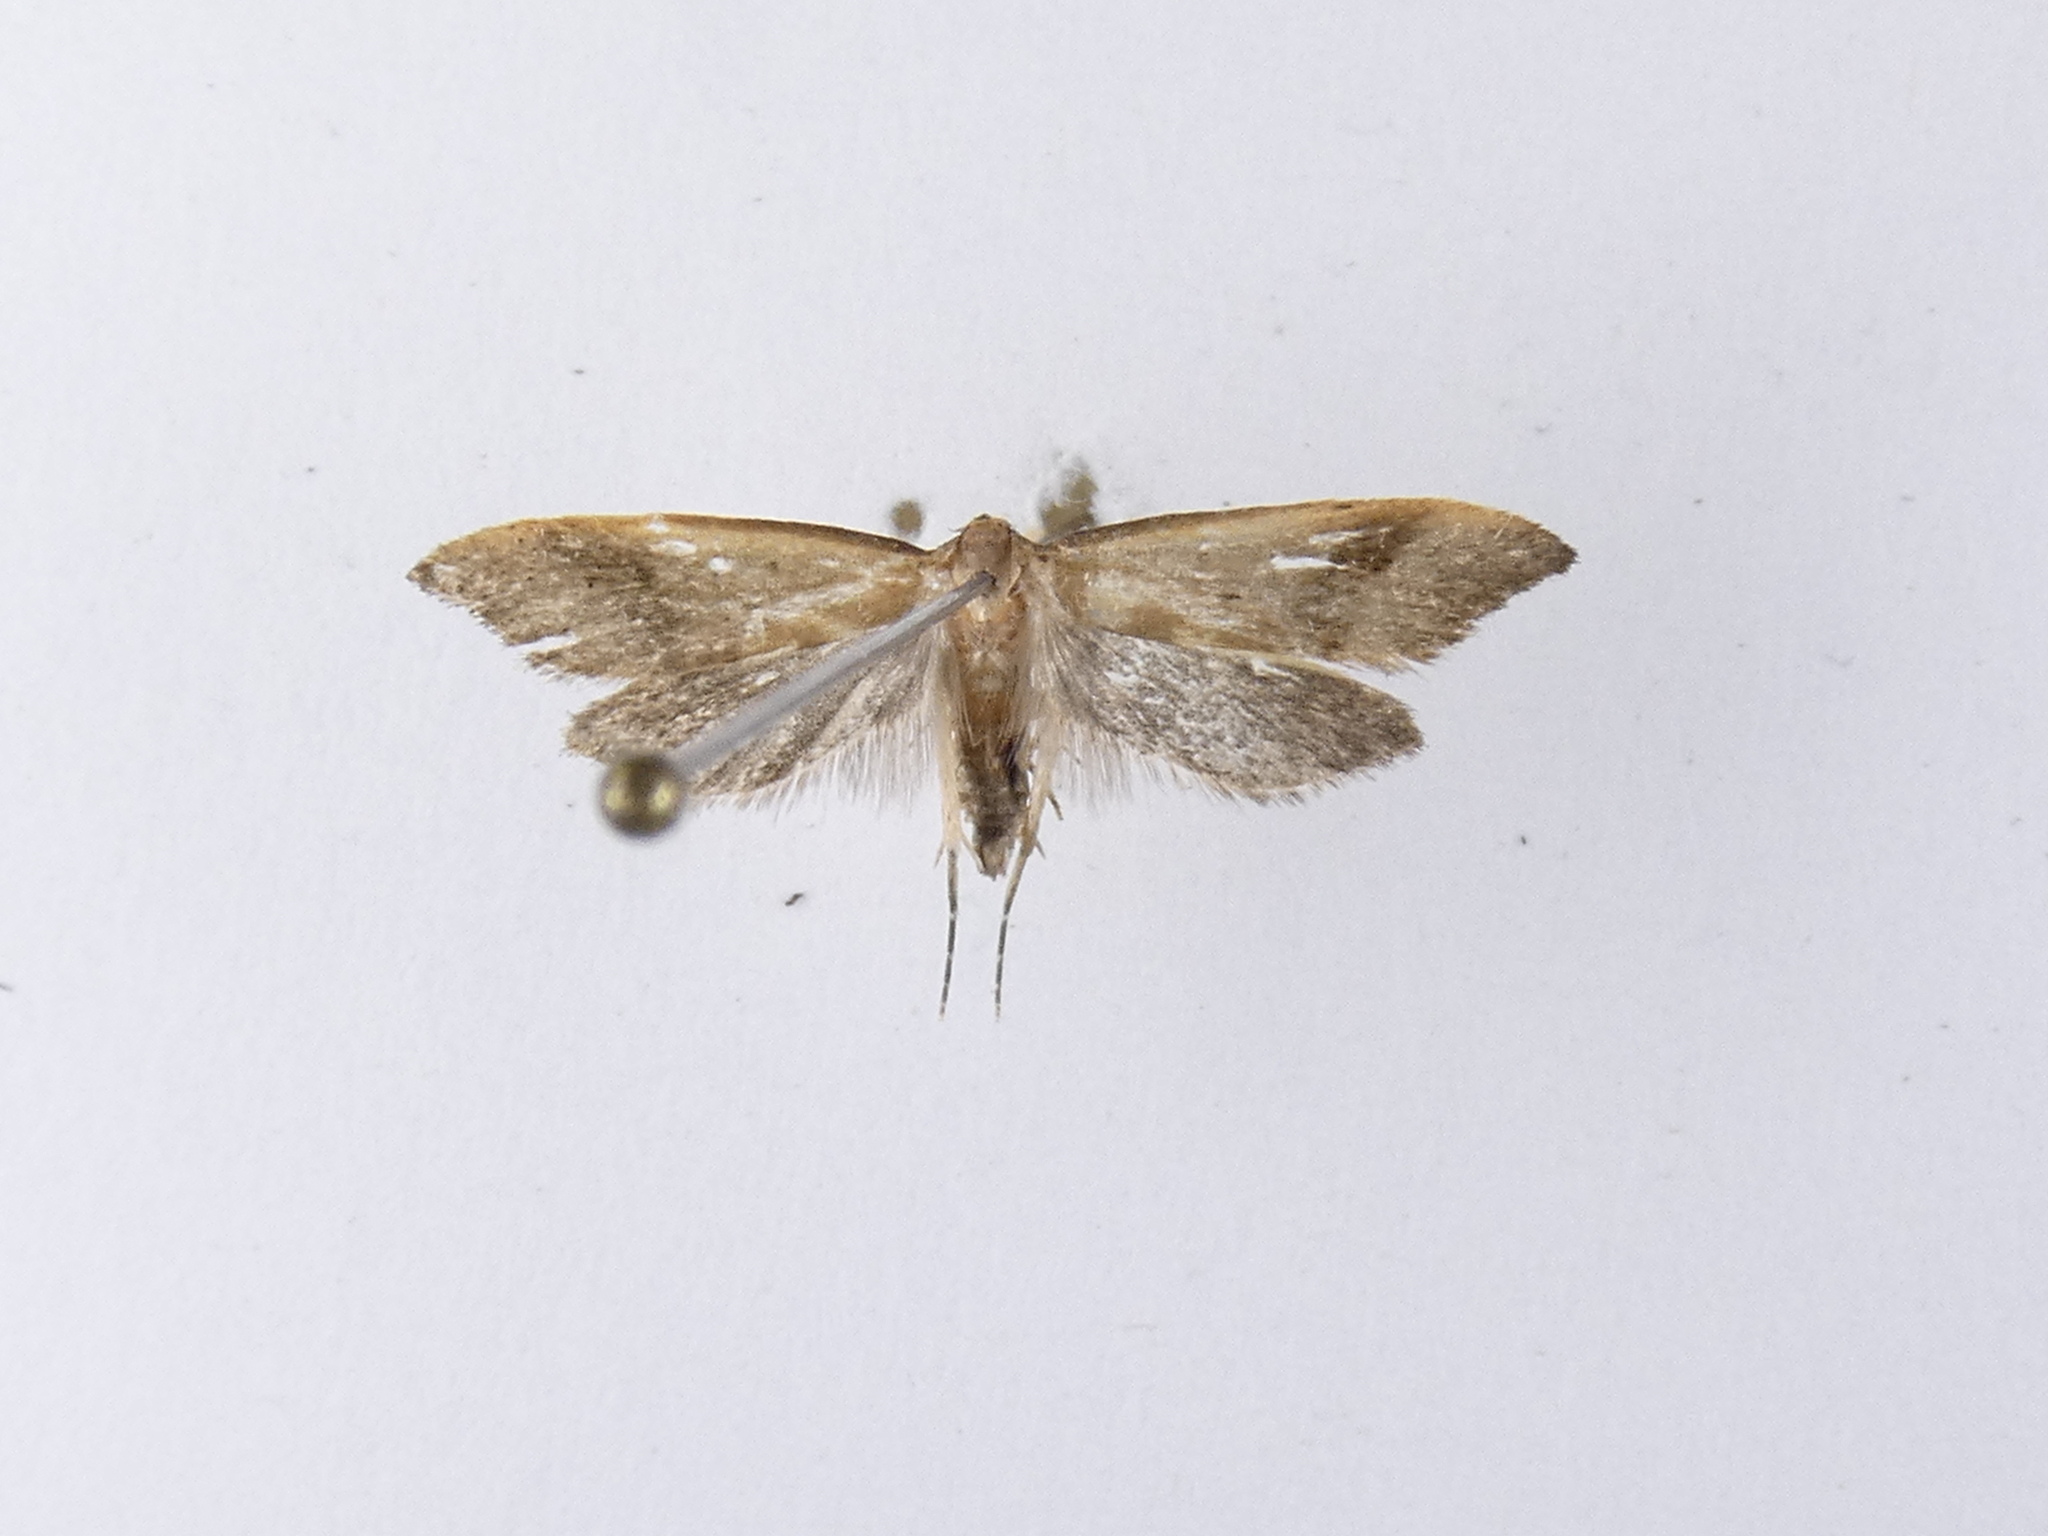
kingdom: Animalia
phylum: Arthropoda
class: Insecta
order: Lepidoptera
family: Oecophoridae
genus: Gymnobathra
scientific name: Gymnobathra hyetodes
